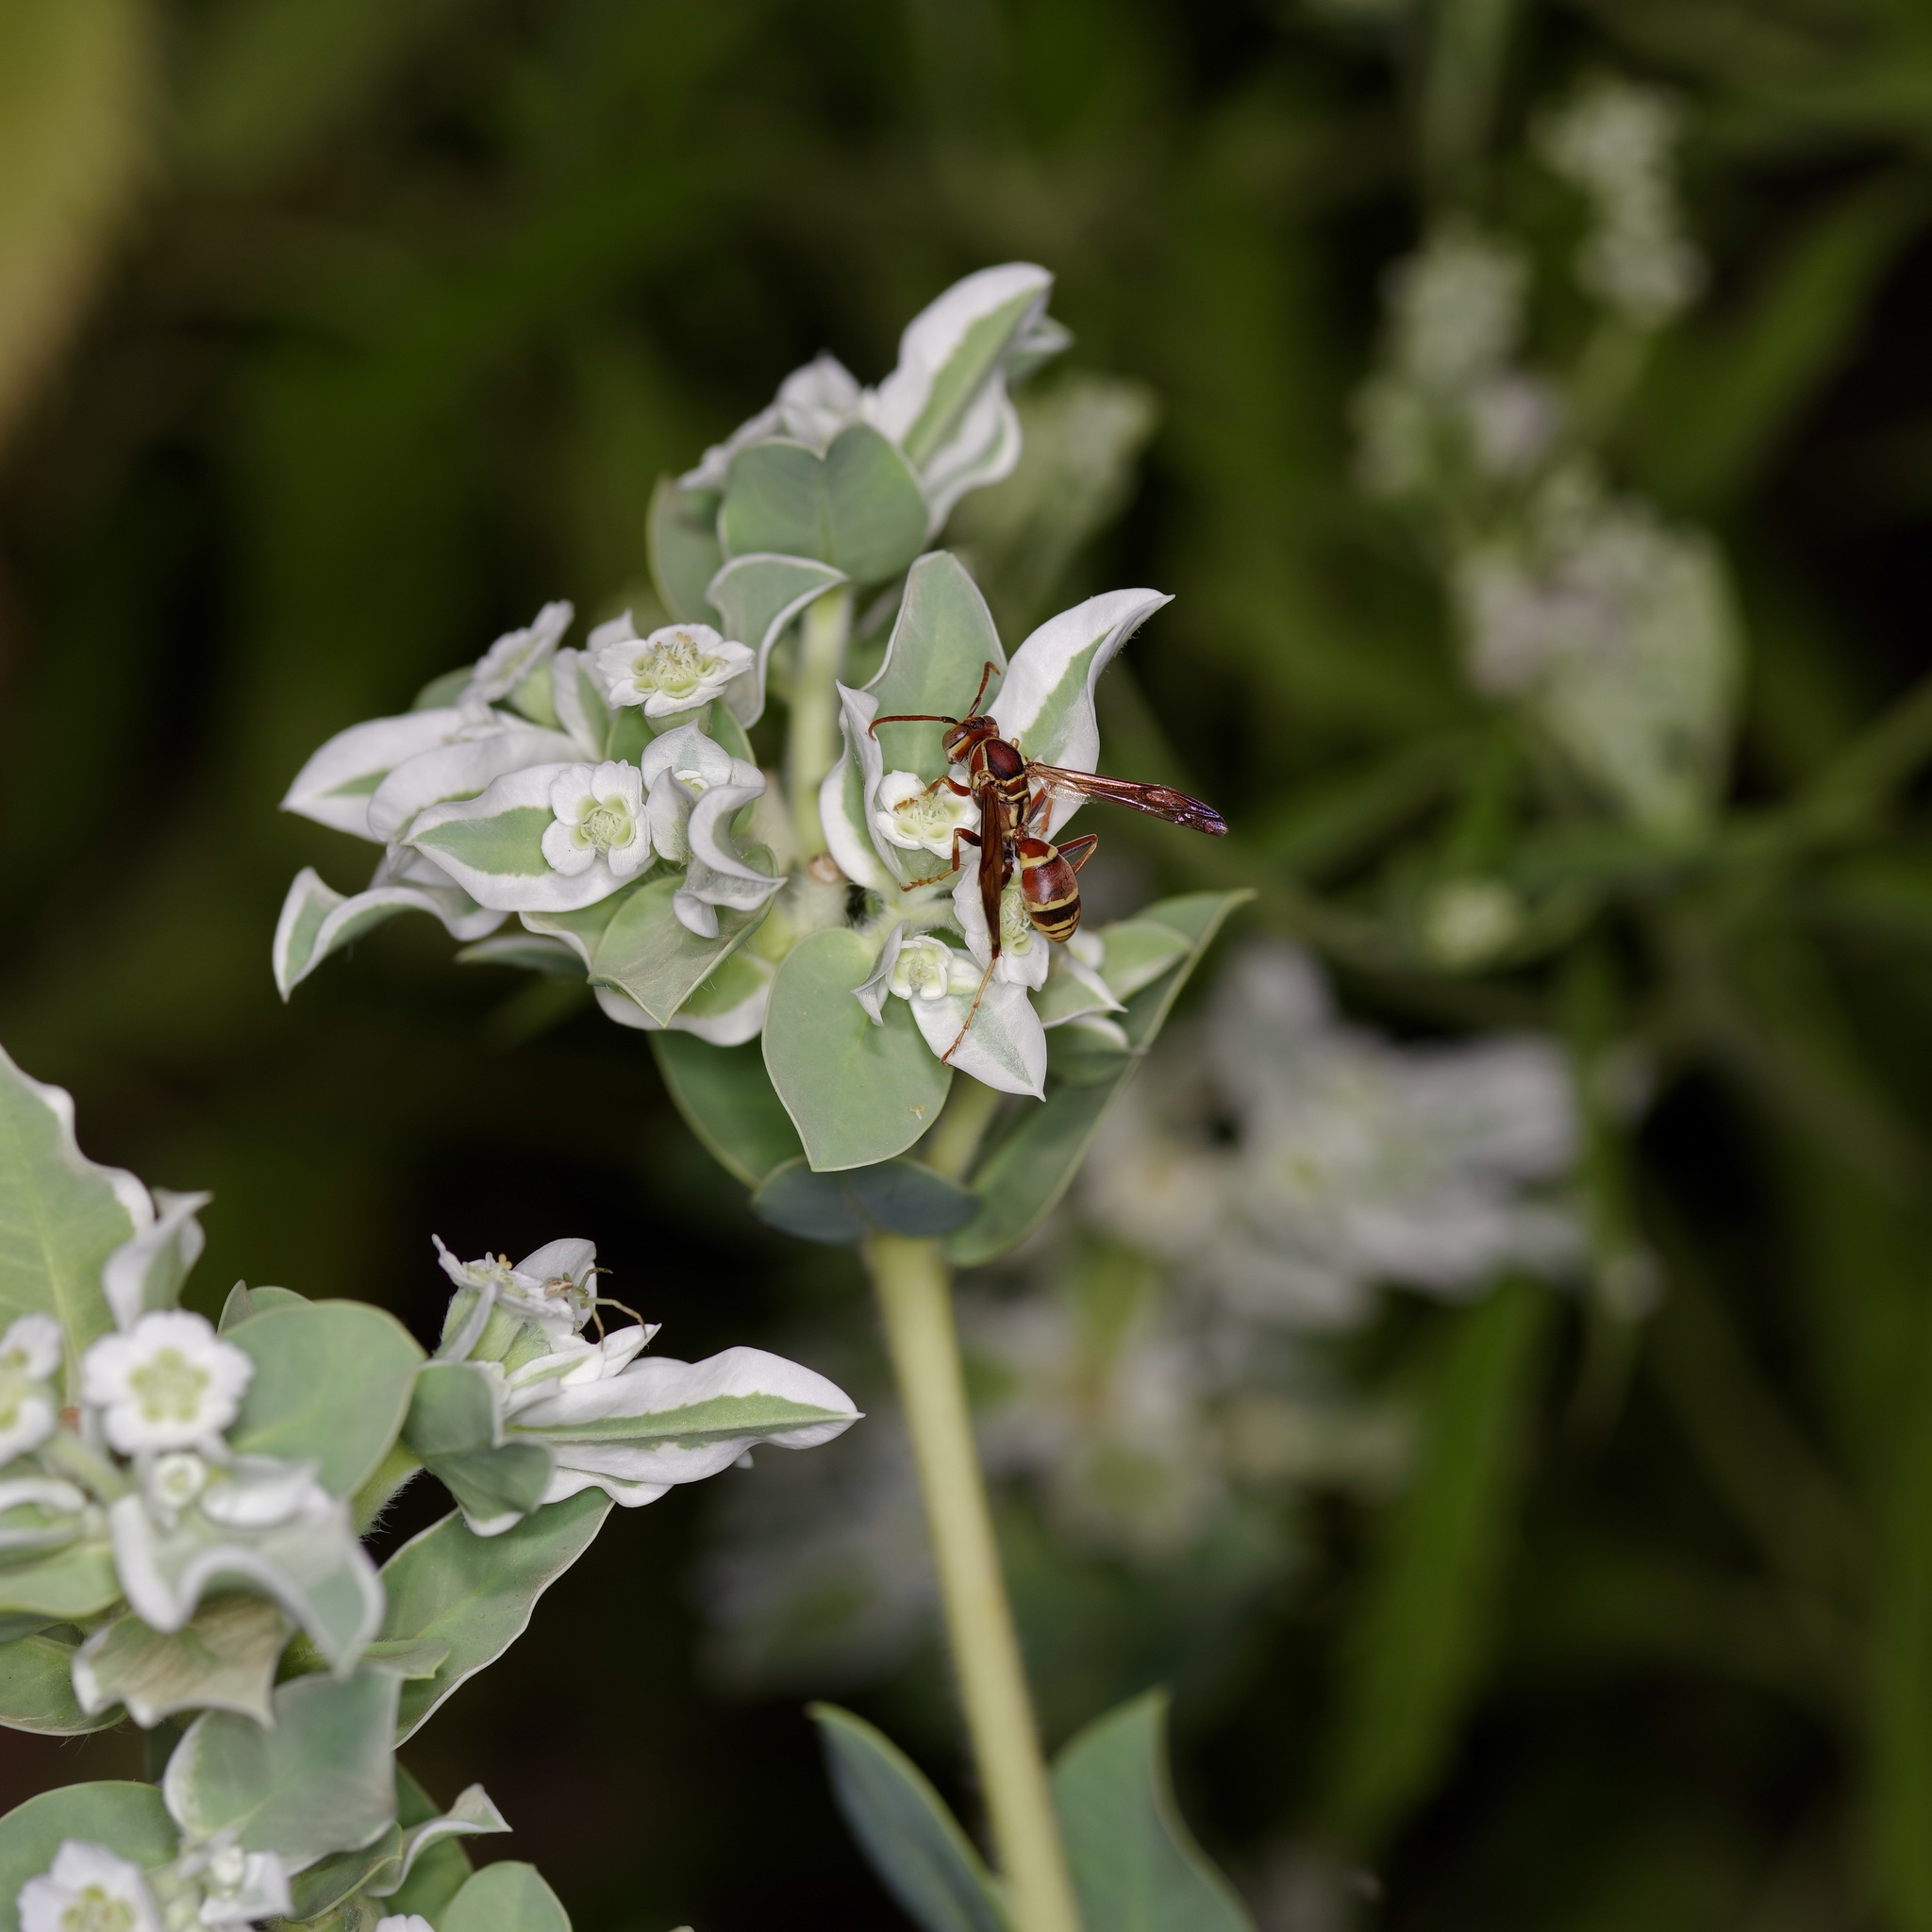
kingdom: Animalia
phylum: Arthropoda
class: Insecta
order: Hymenoptera
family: Eumenidae
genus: Polistes
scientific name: Polistes dorsalis
